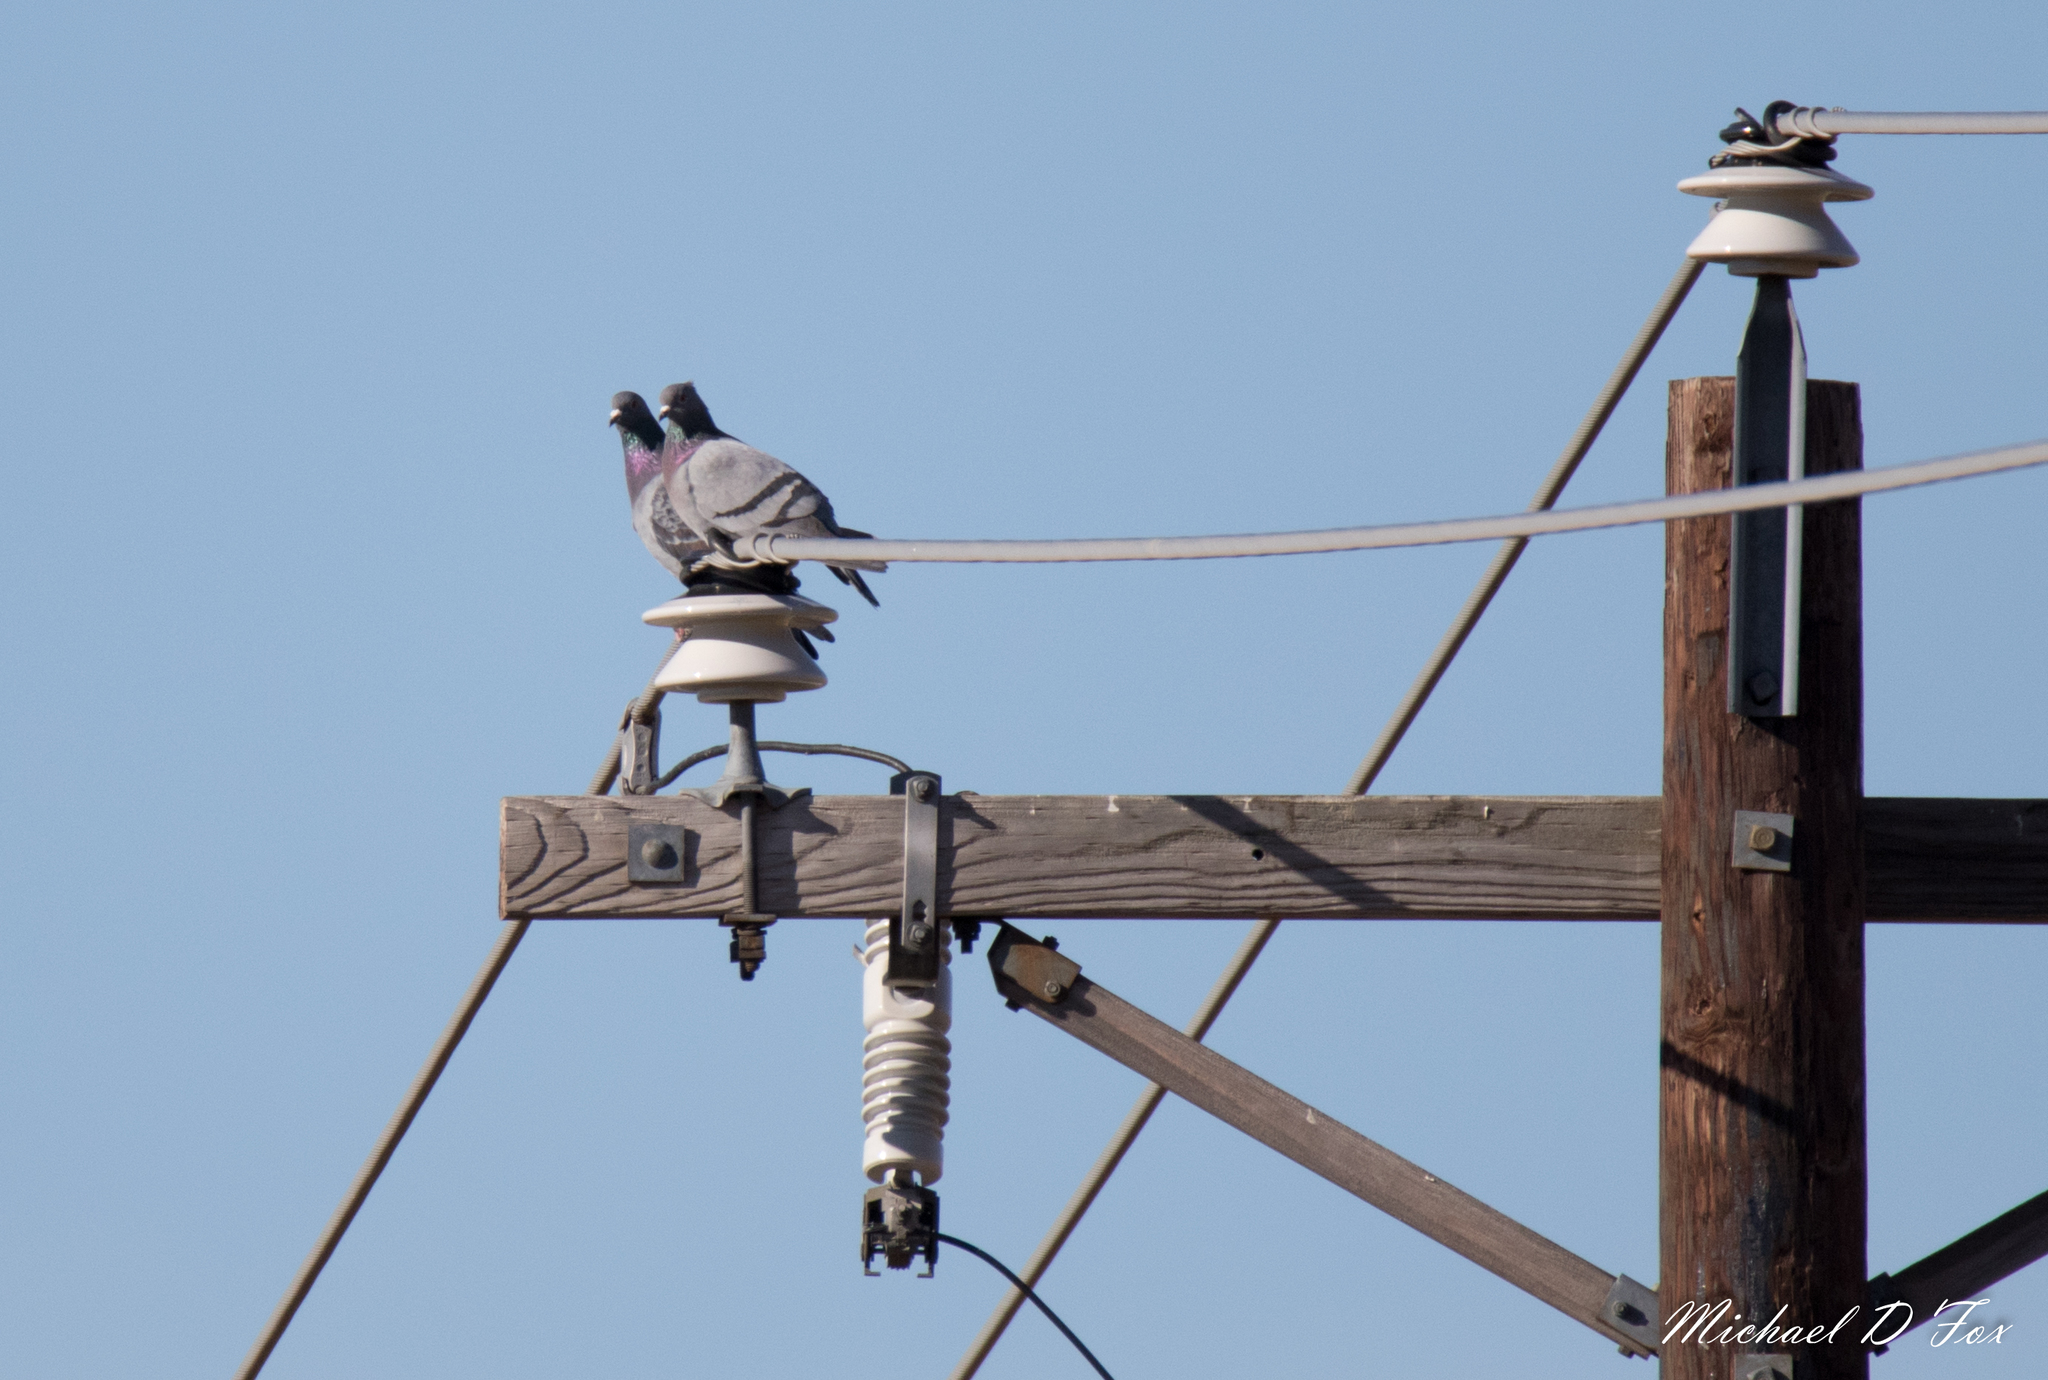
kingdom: Animalia
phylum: Chordata
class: Aves
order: Columbiformes
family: Columbidae
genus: Columba
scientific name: Columba livia
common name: Rock pigeon
